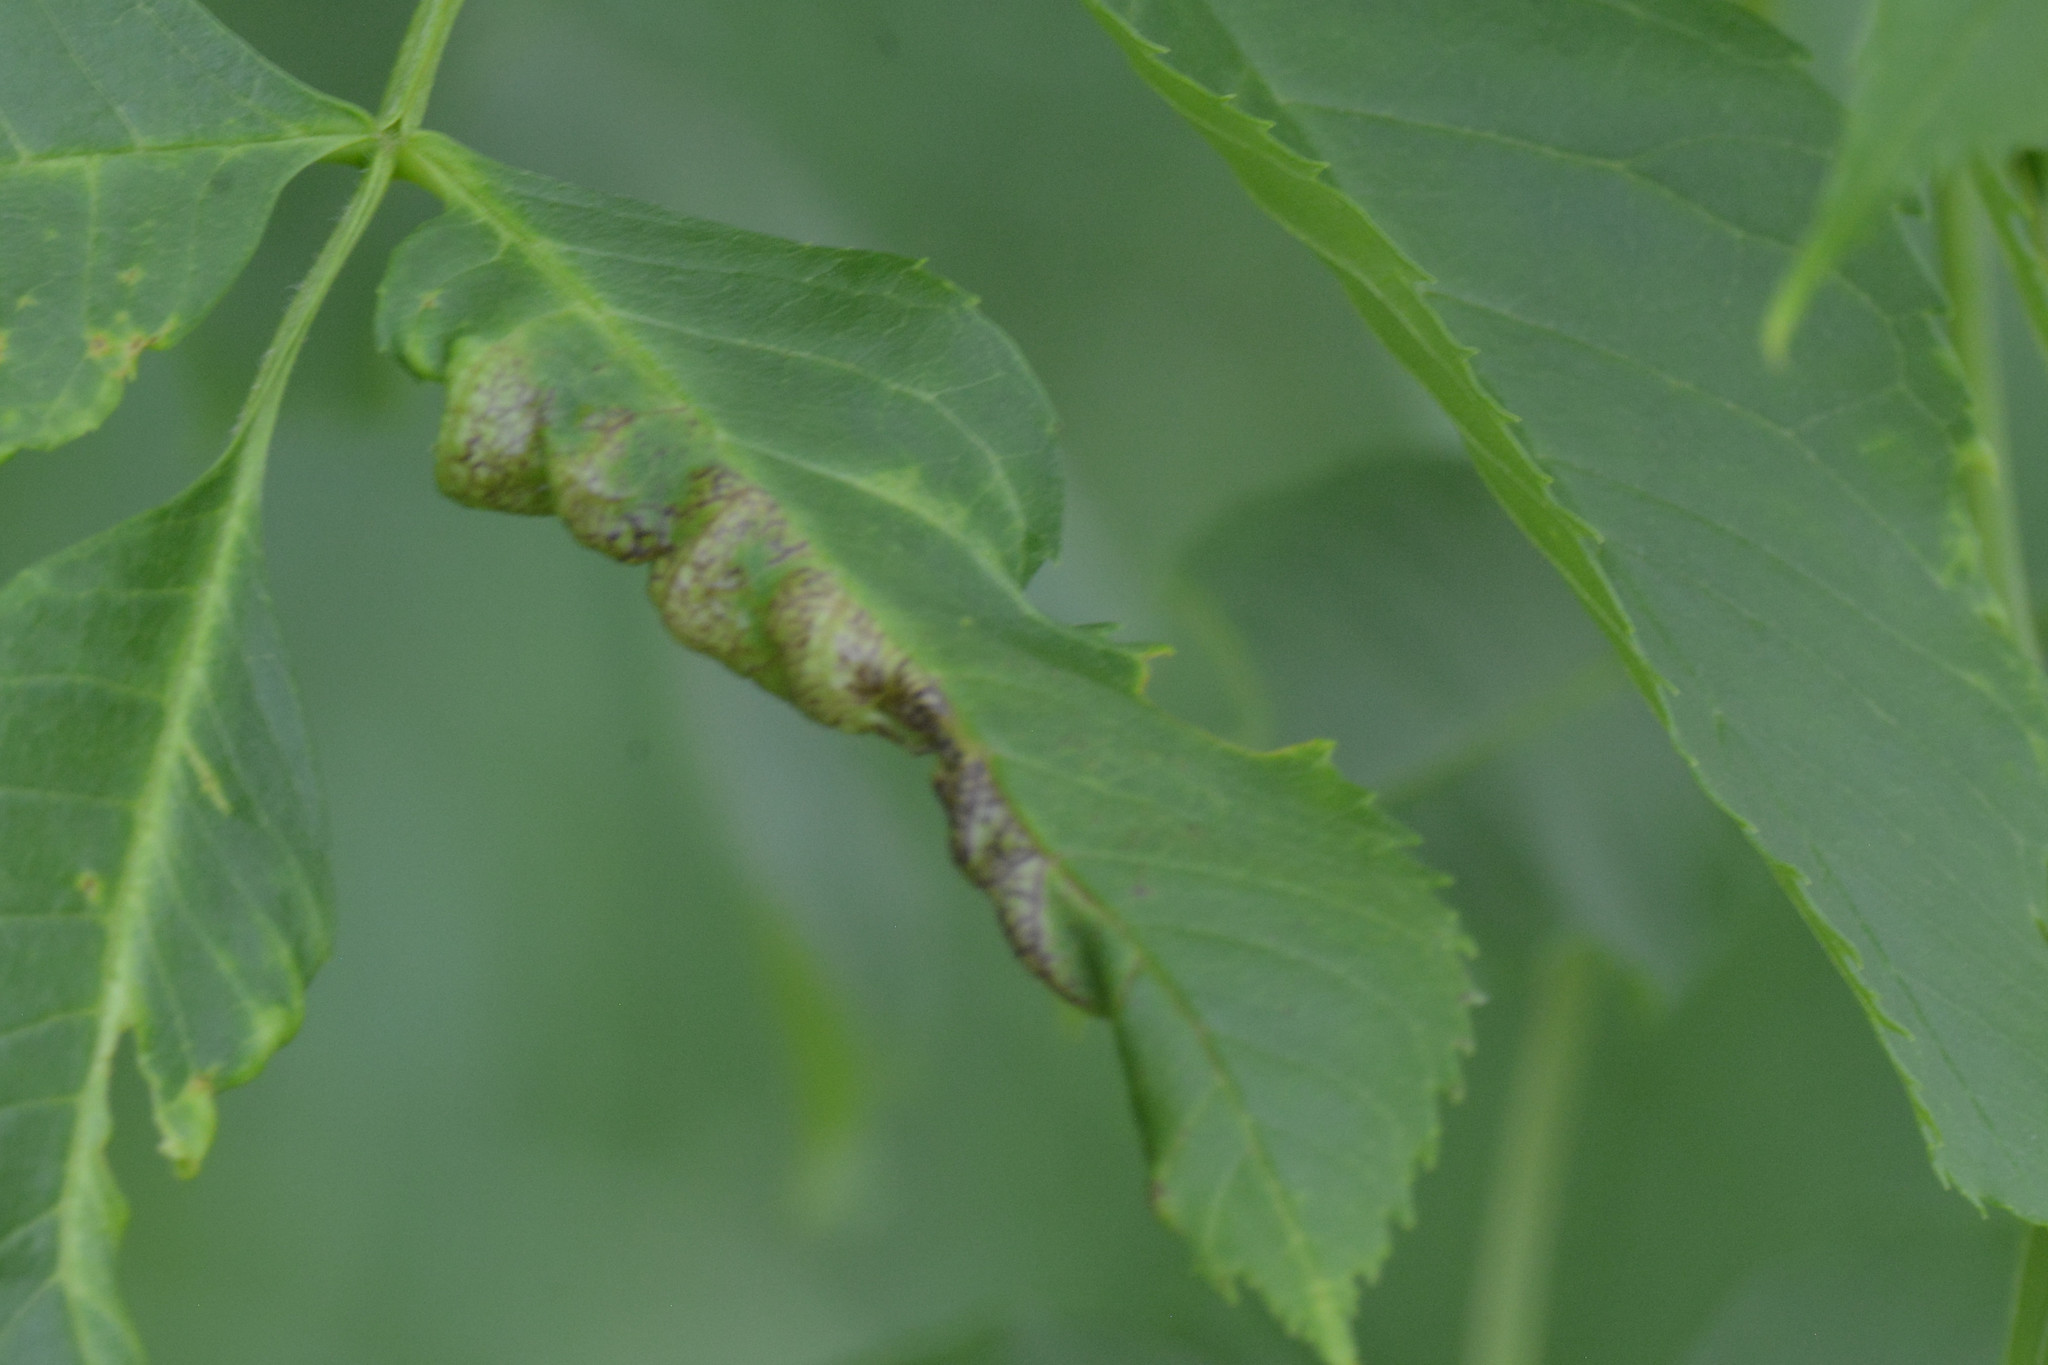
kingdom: Plantae
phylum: Tracheophyta
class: Magnoliopsida
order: Lamiales
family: Oleaceae
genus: Fraxinus
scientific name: Fraxinus excelsior
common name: European ash
